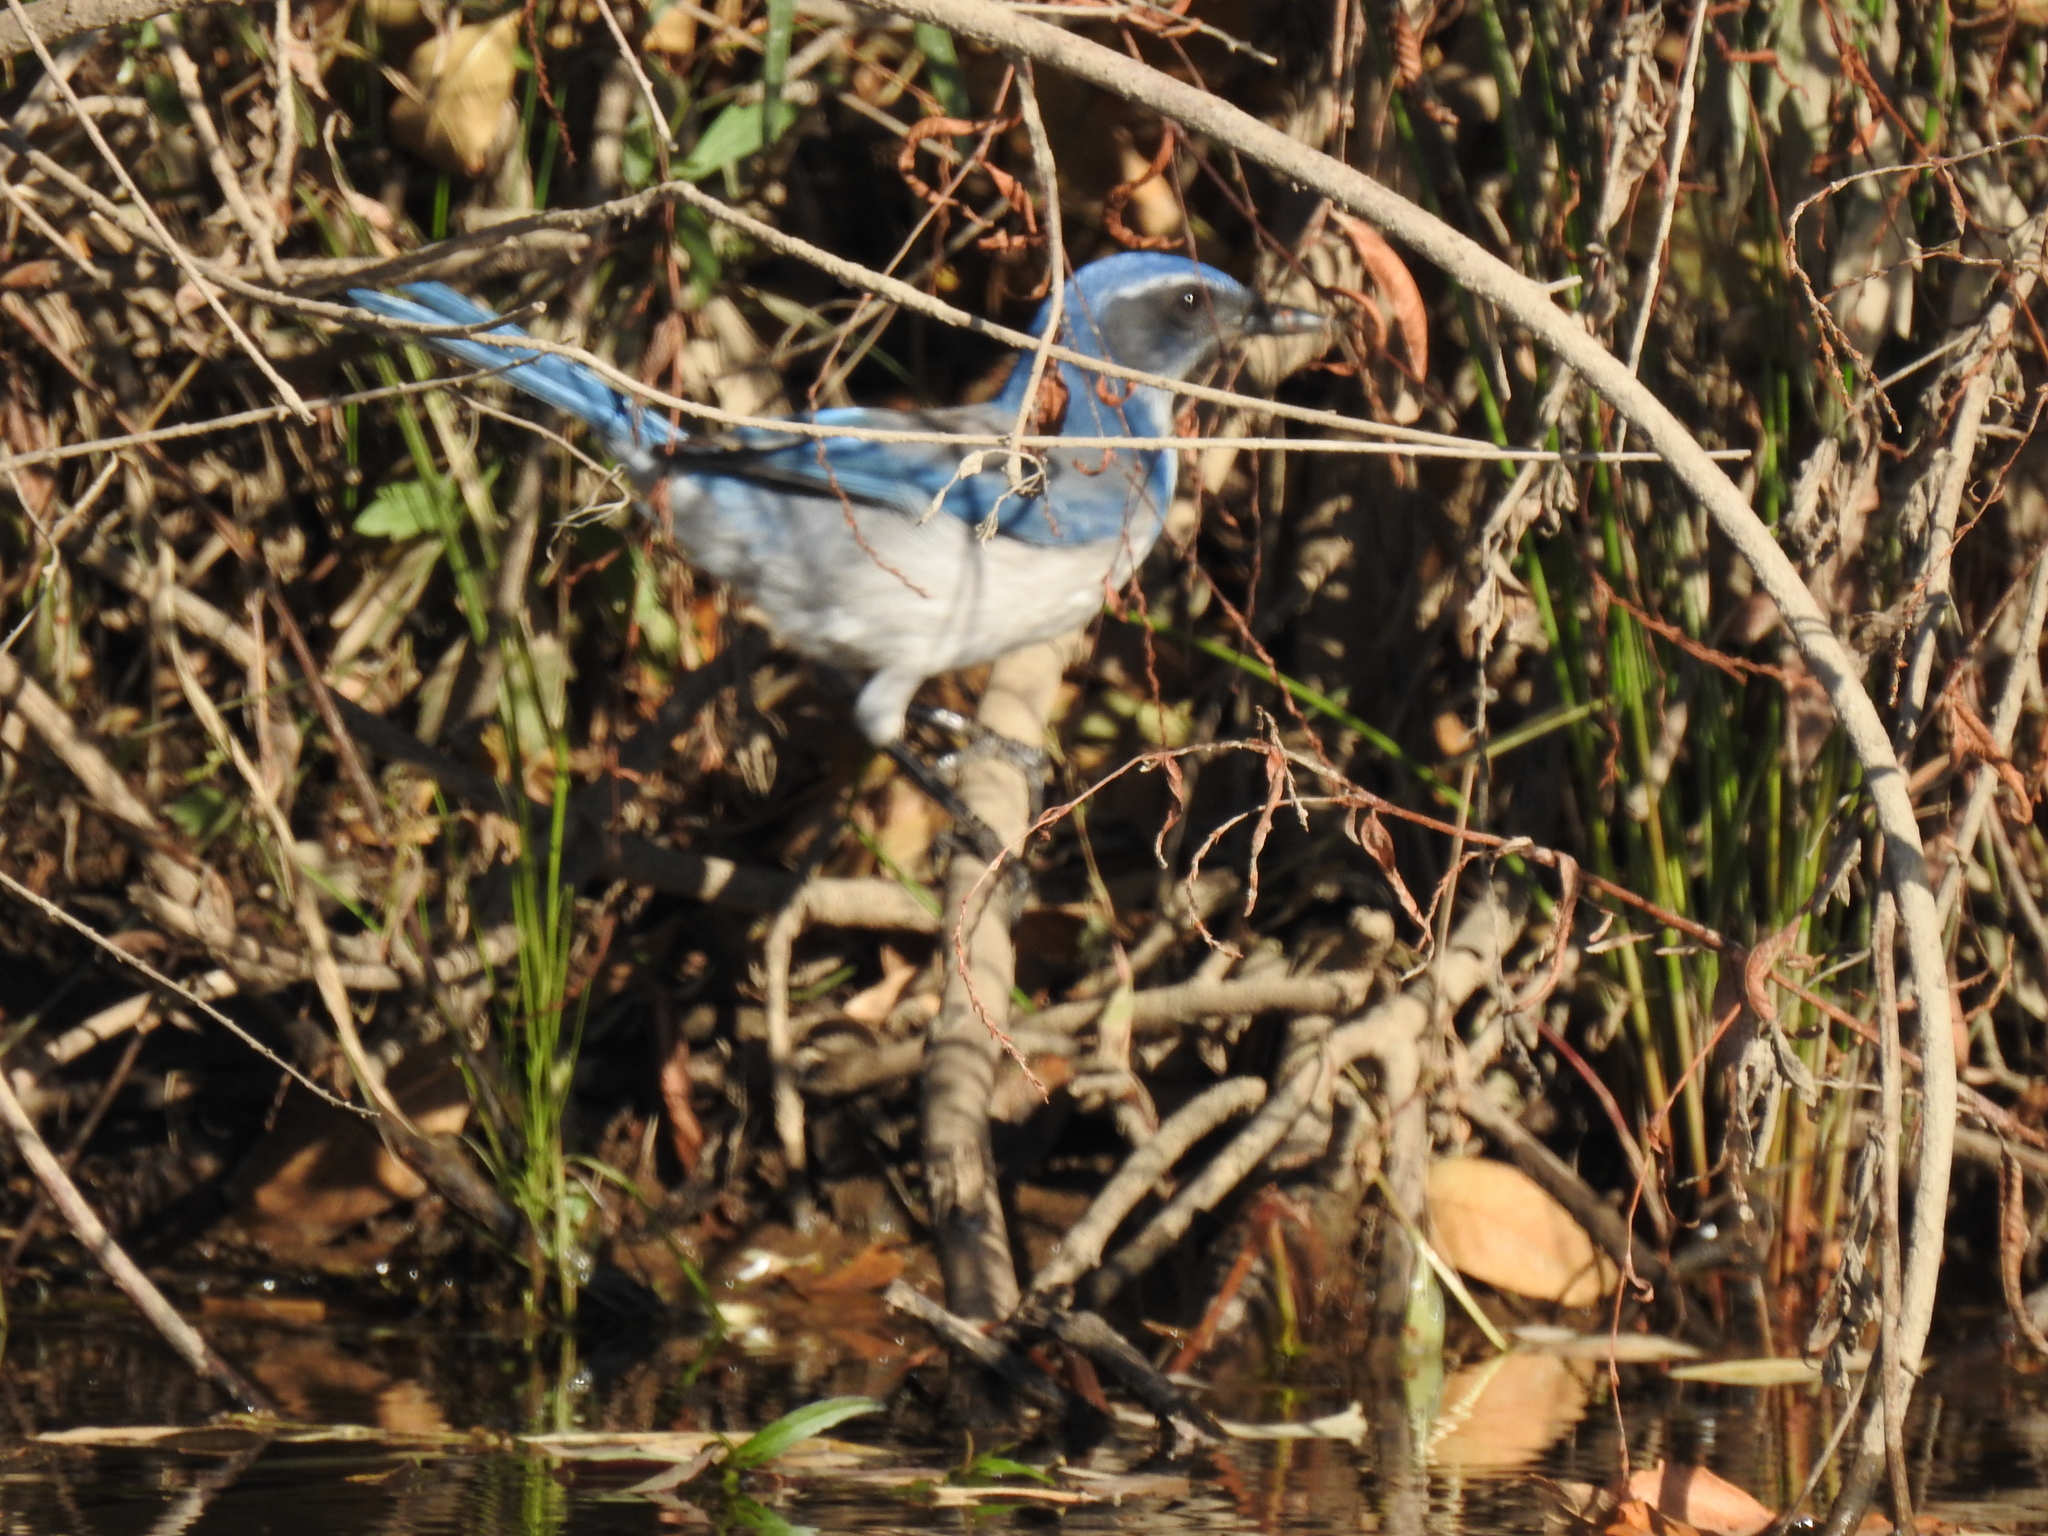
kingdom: Animalia
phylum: Chordata
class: Aves
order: Passeriformes
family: Corvidae
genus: Aphelocoma
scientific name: Aphelocoma californica
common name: California scrub-jay
